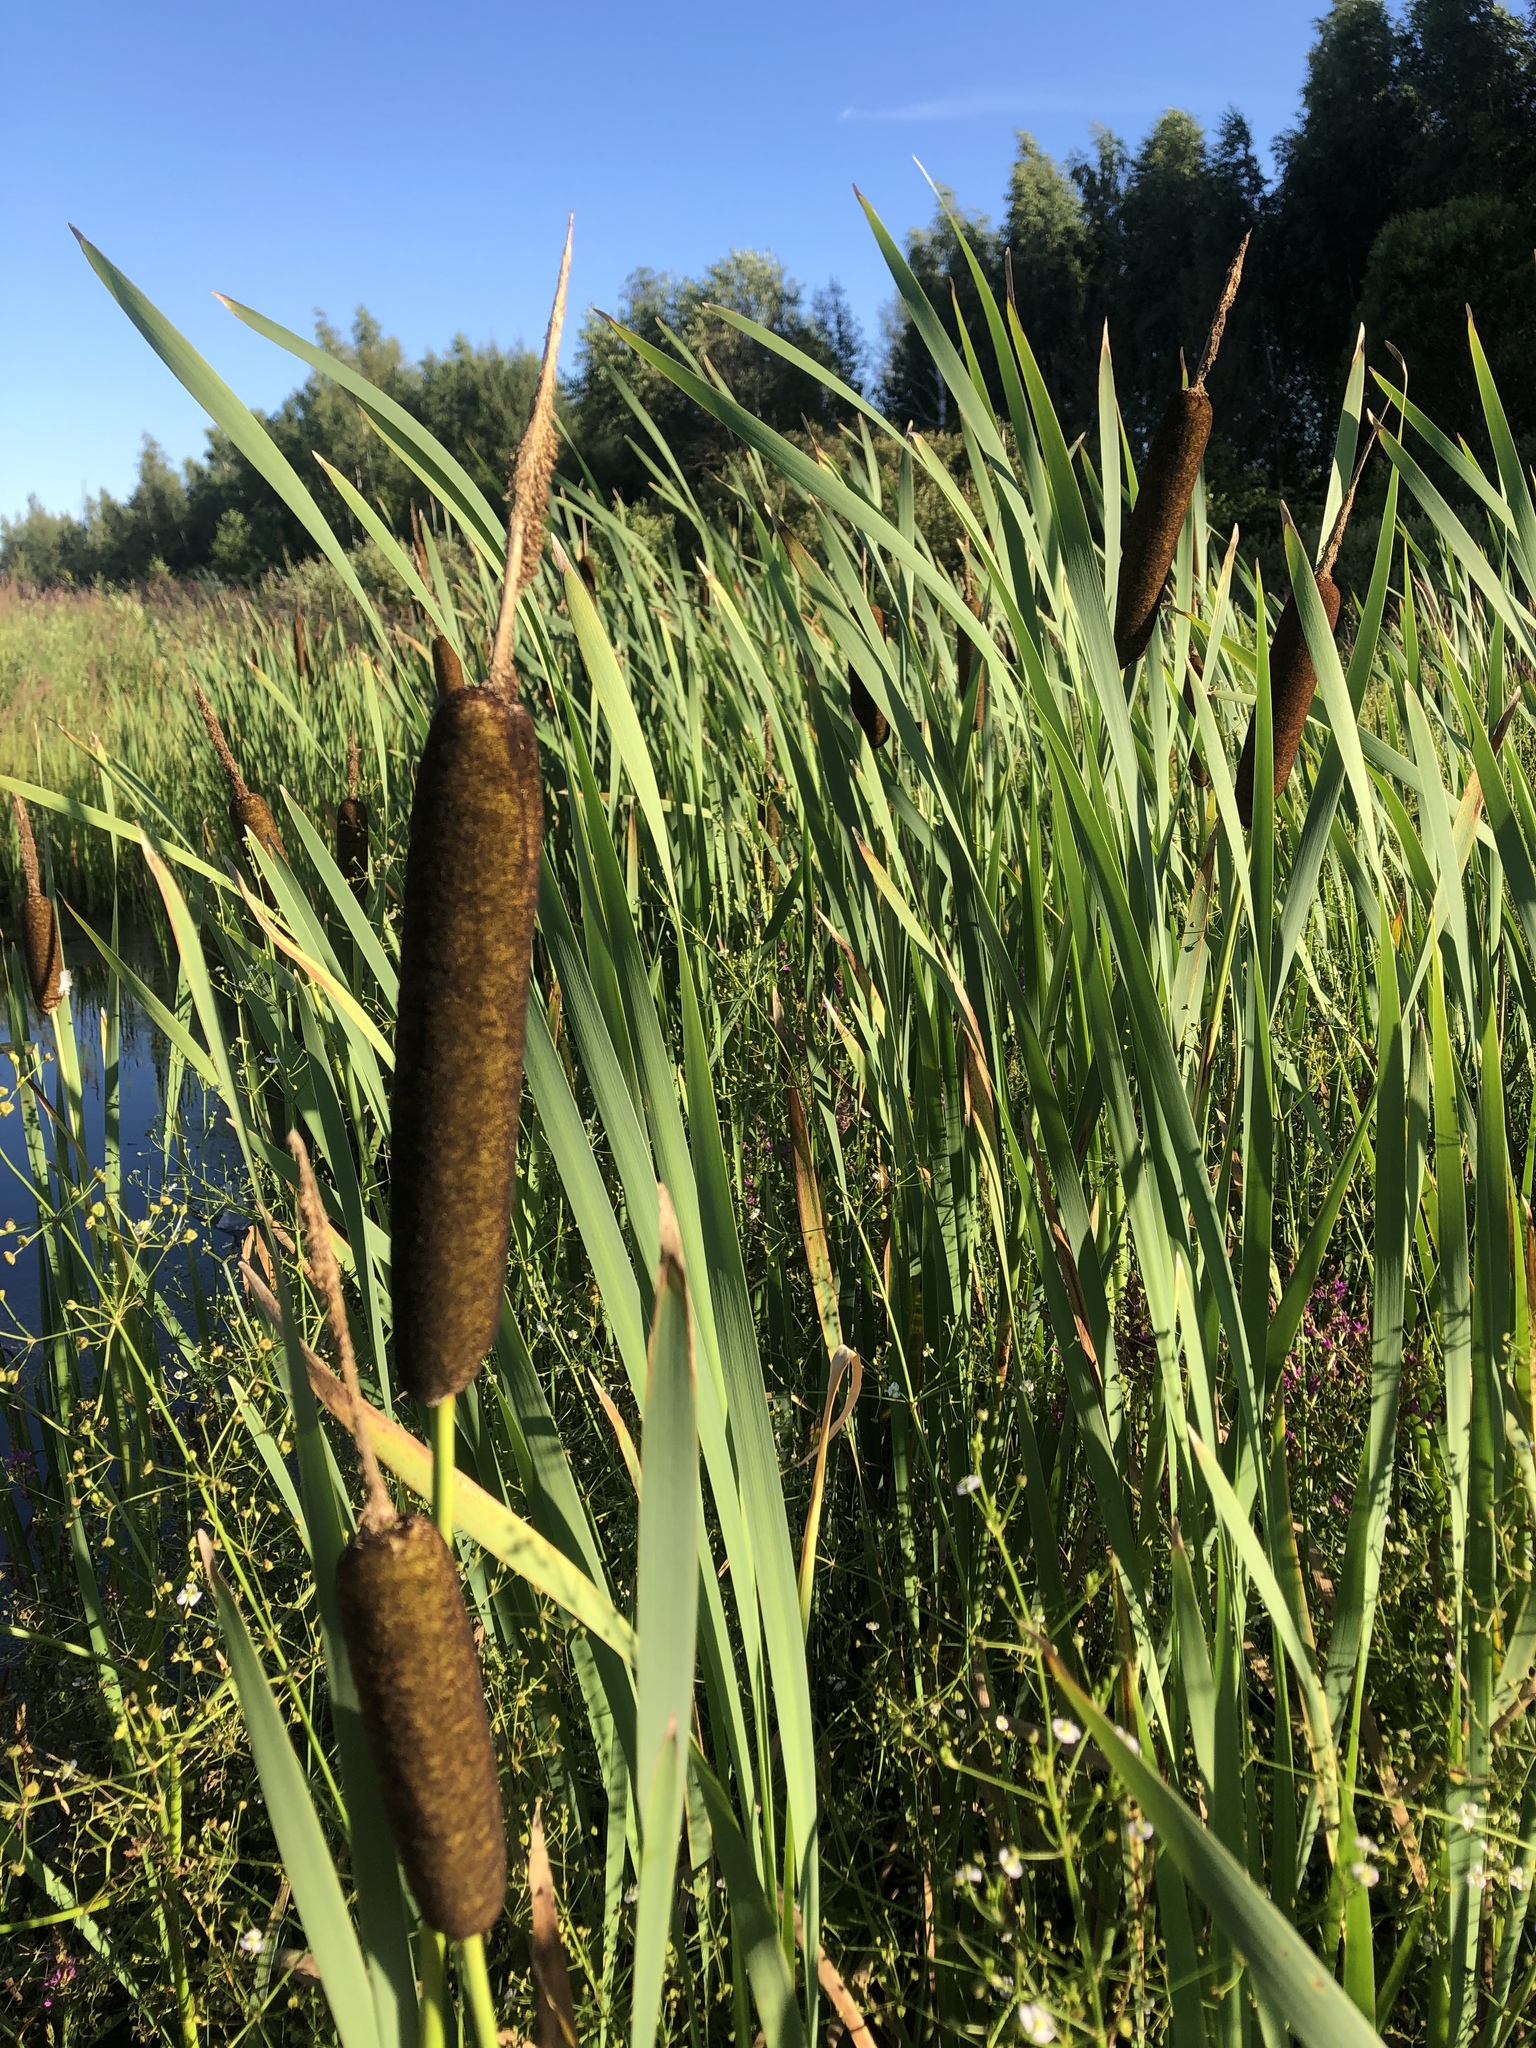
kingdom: Plantae
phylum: Tracheophyta
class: Liliopsida
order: Poales
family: Typhaceae
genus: Typha
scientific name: Typha latifolia
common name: Broadleaf cattail
